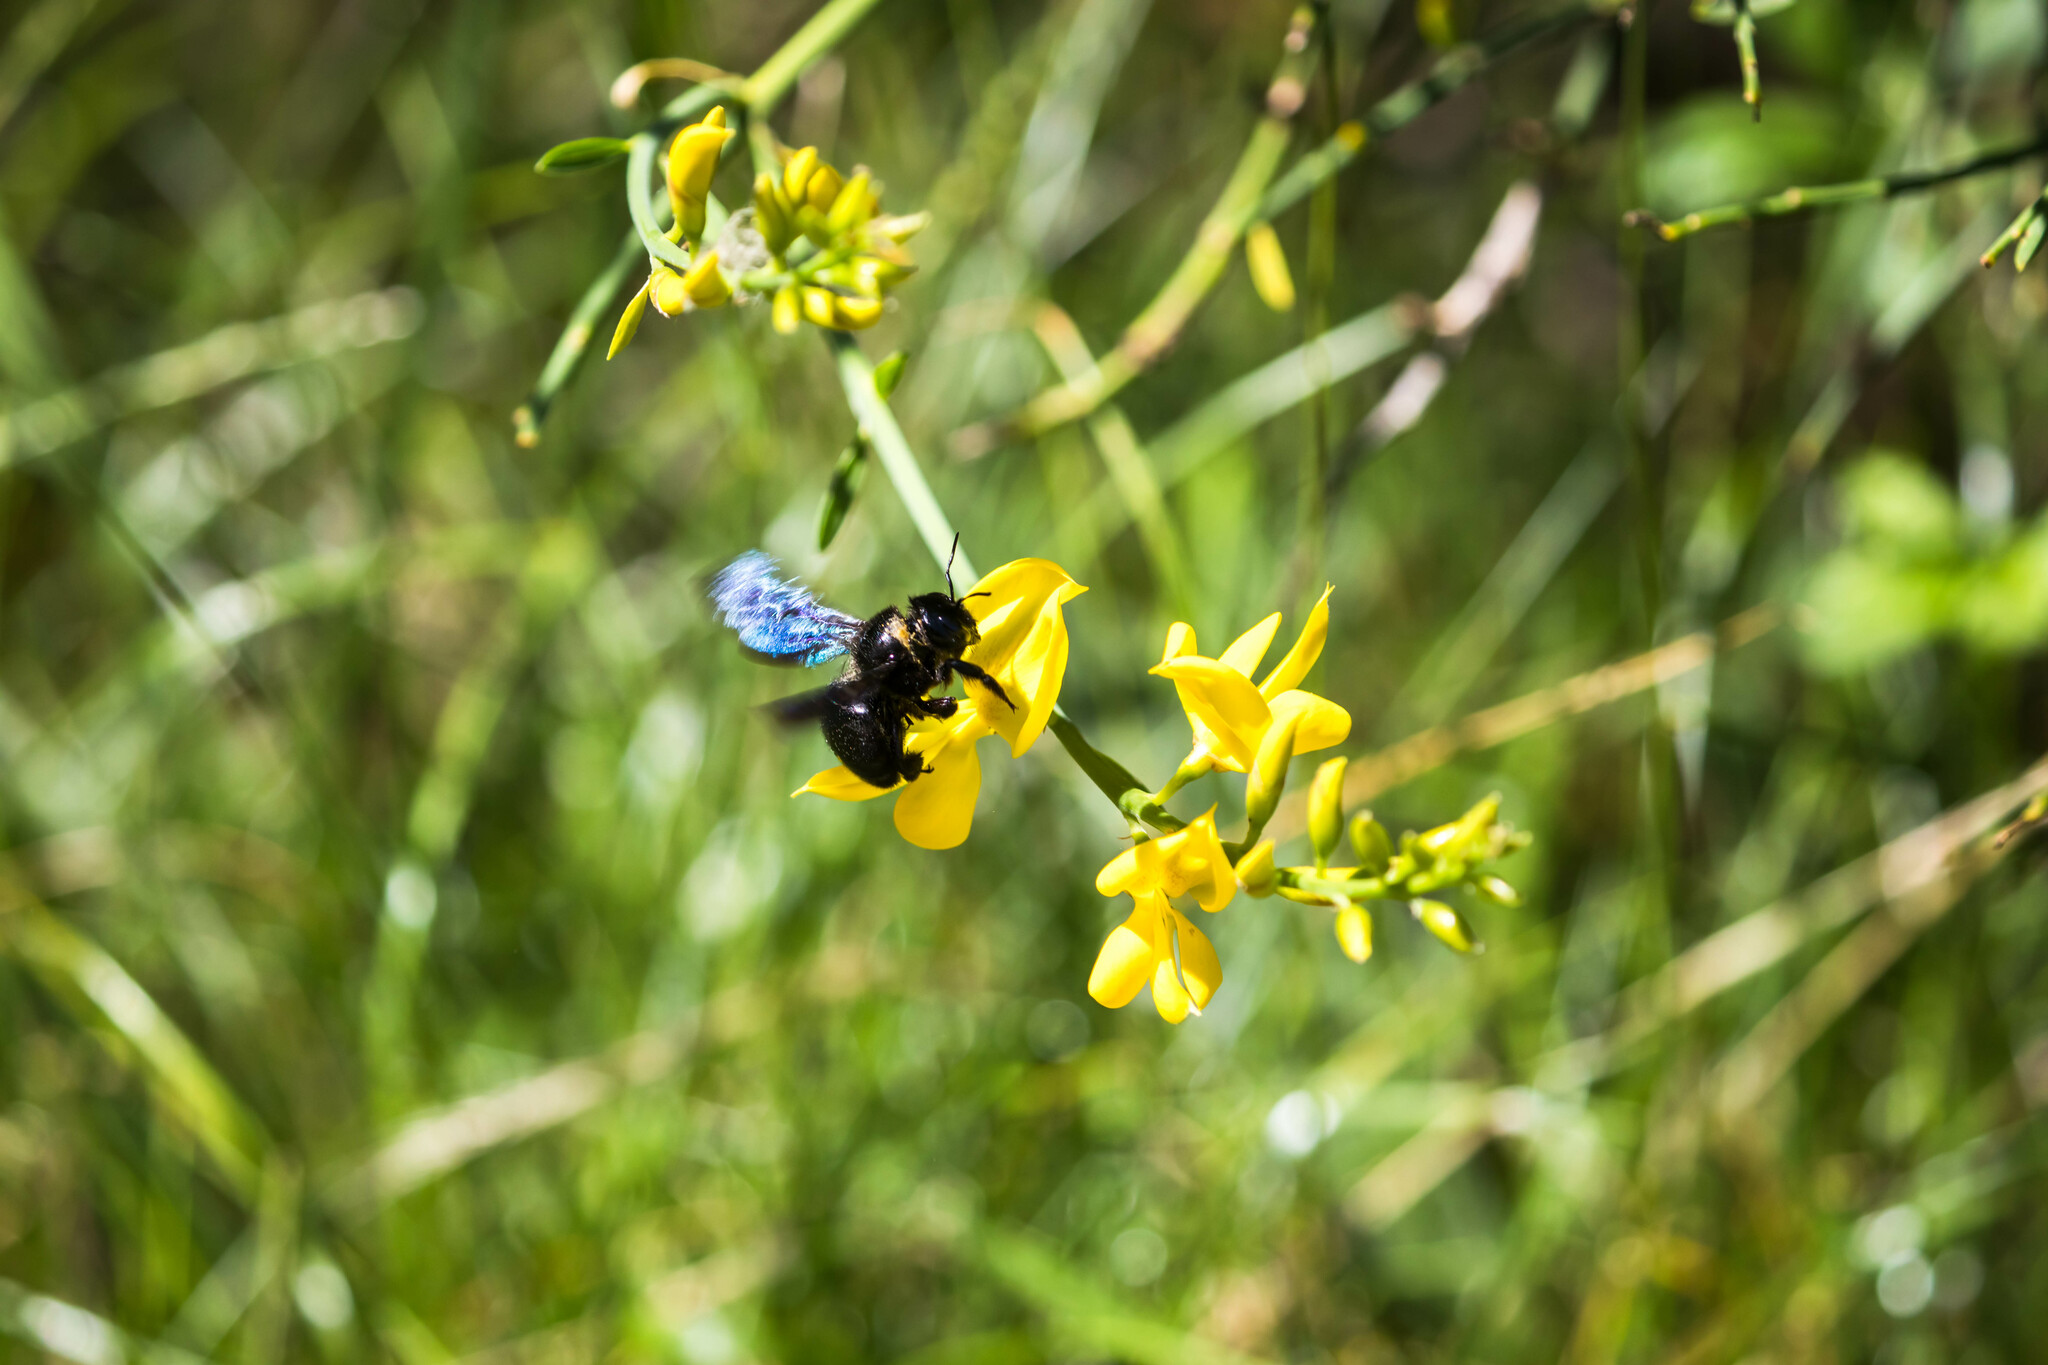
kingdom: Animalia
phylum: Arthropoda
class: Insecta
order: Hymenoptera
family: Apidae
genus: Xylocopa
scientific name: Xylocopa violacea
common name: Violet carpenter bee
